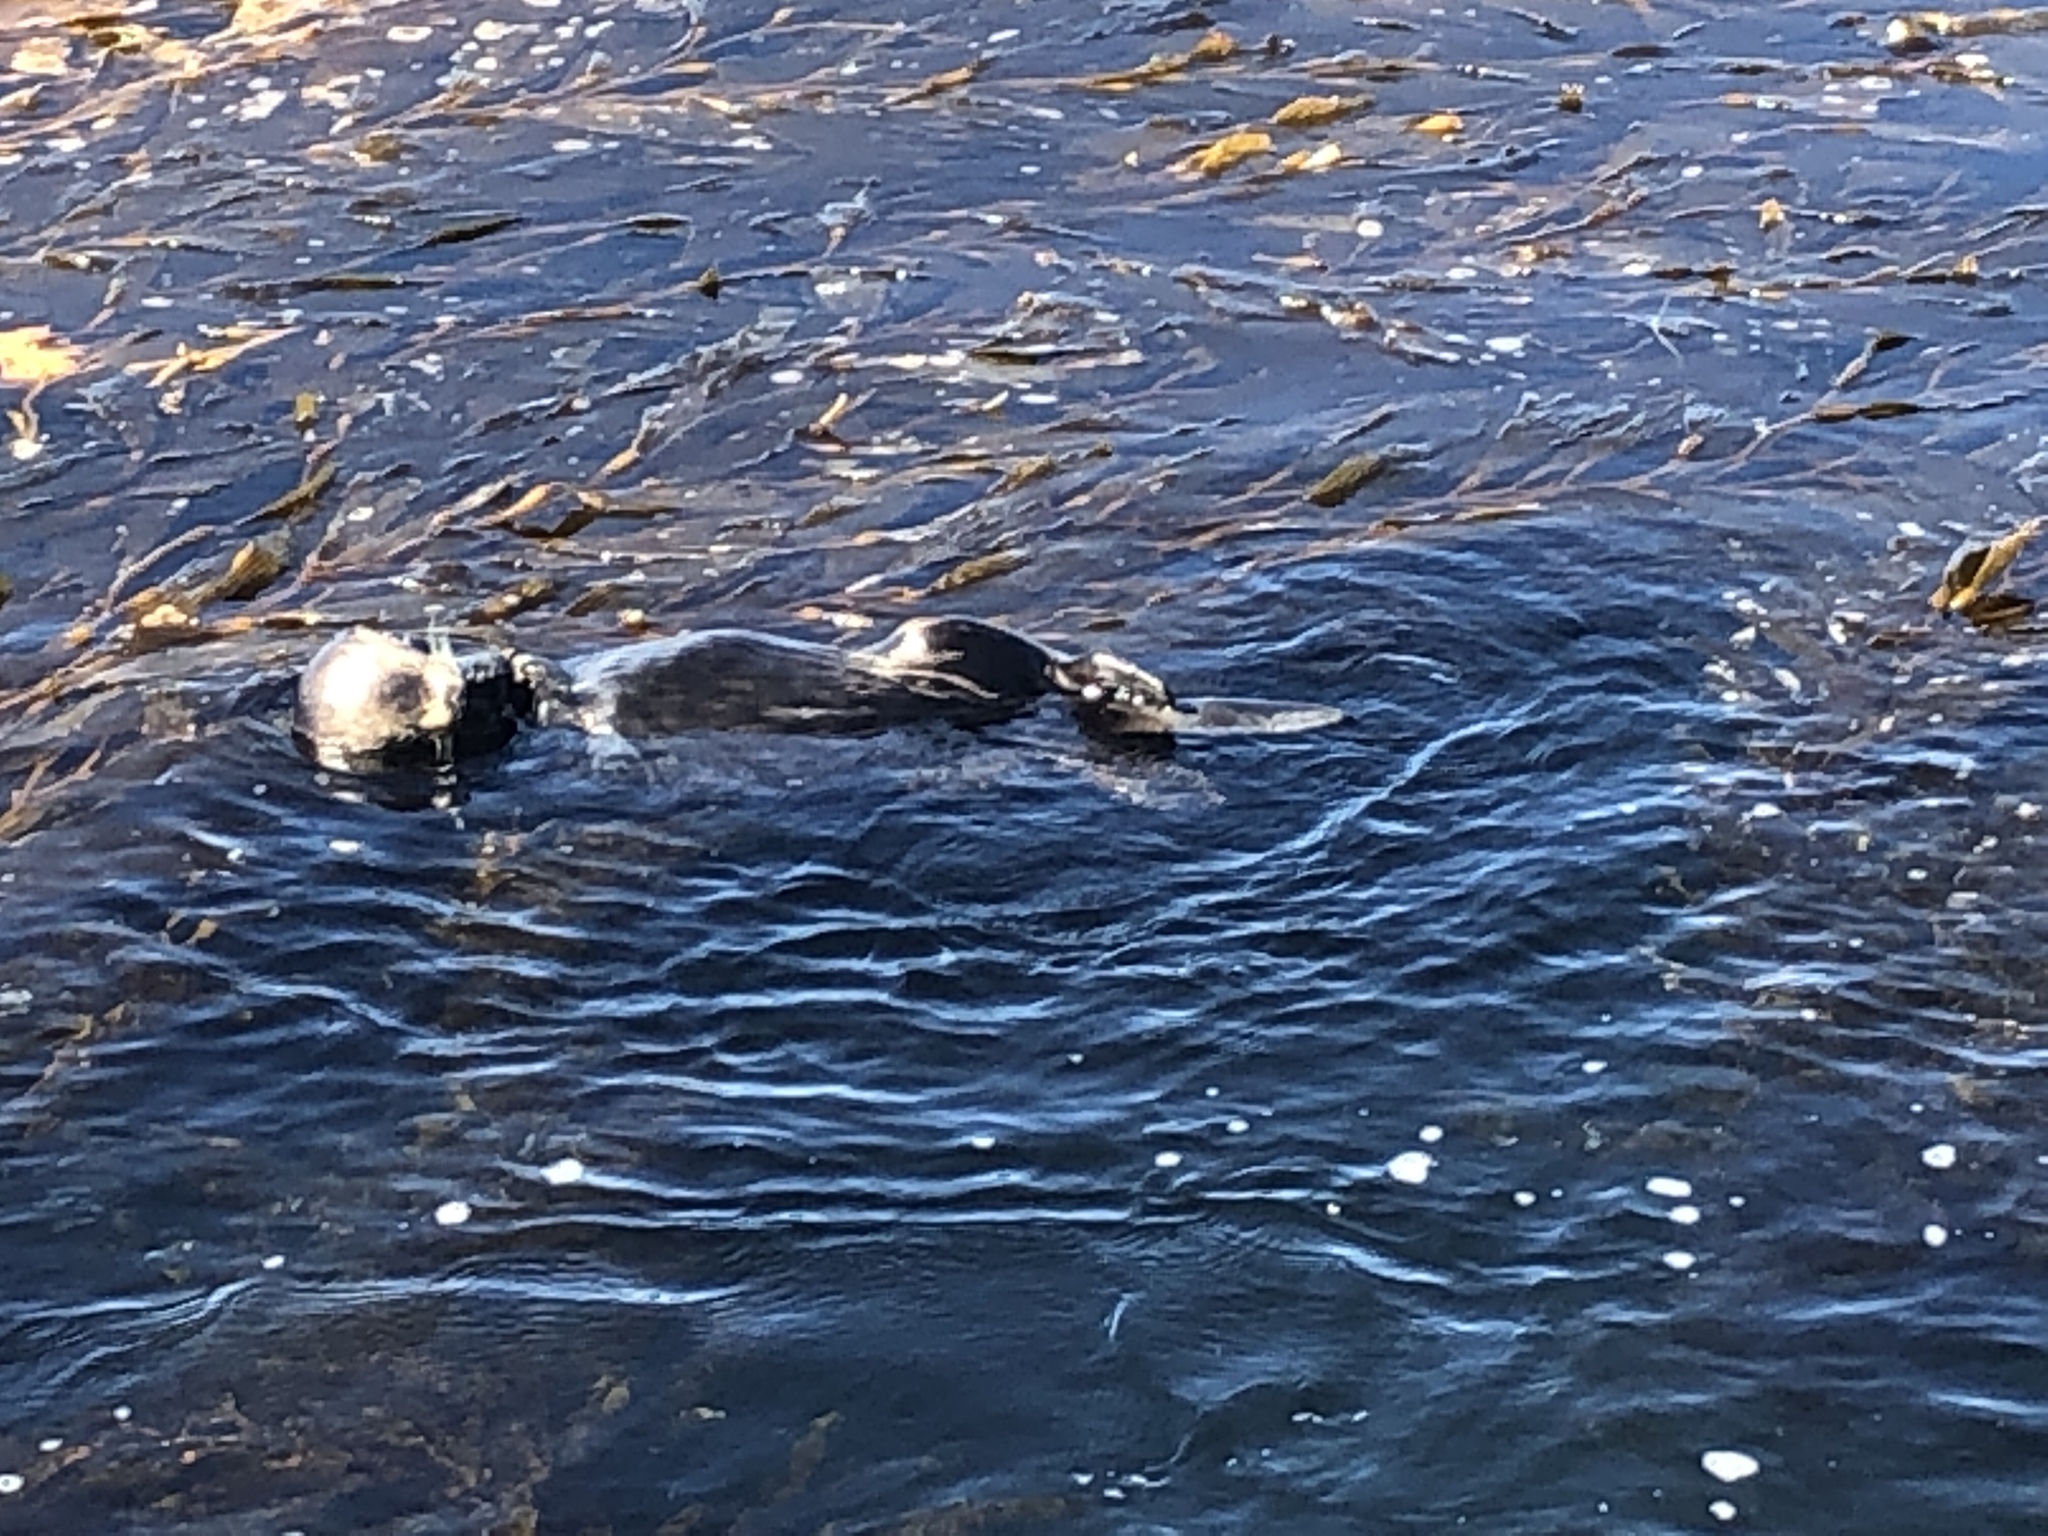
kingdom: Animalia
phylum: Chordata
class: Mammalia
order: Carnivora
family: Mustelidae
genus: Enhydra
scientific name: Enhydra lutris
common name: Sea otter
